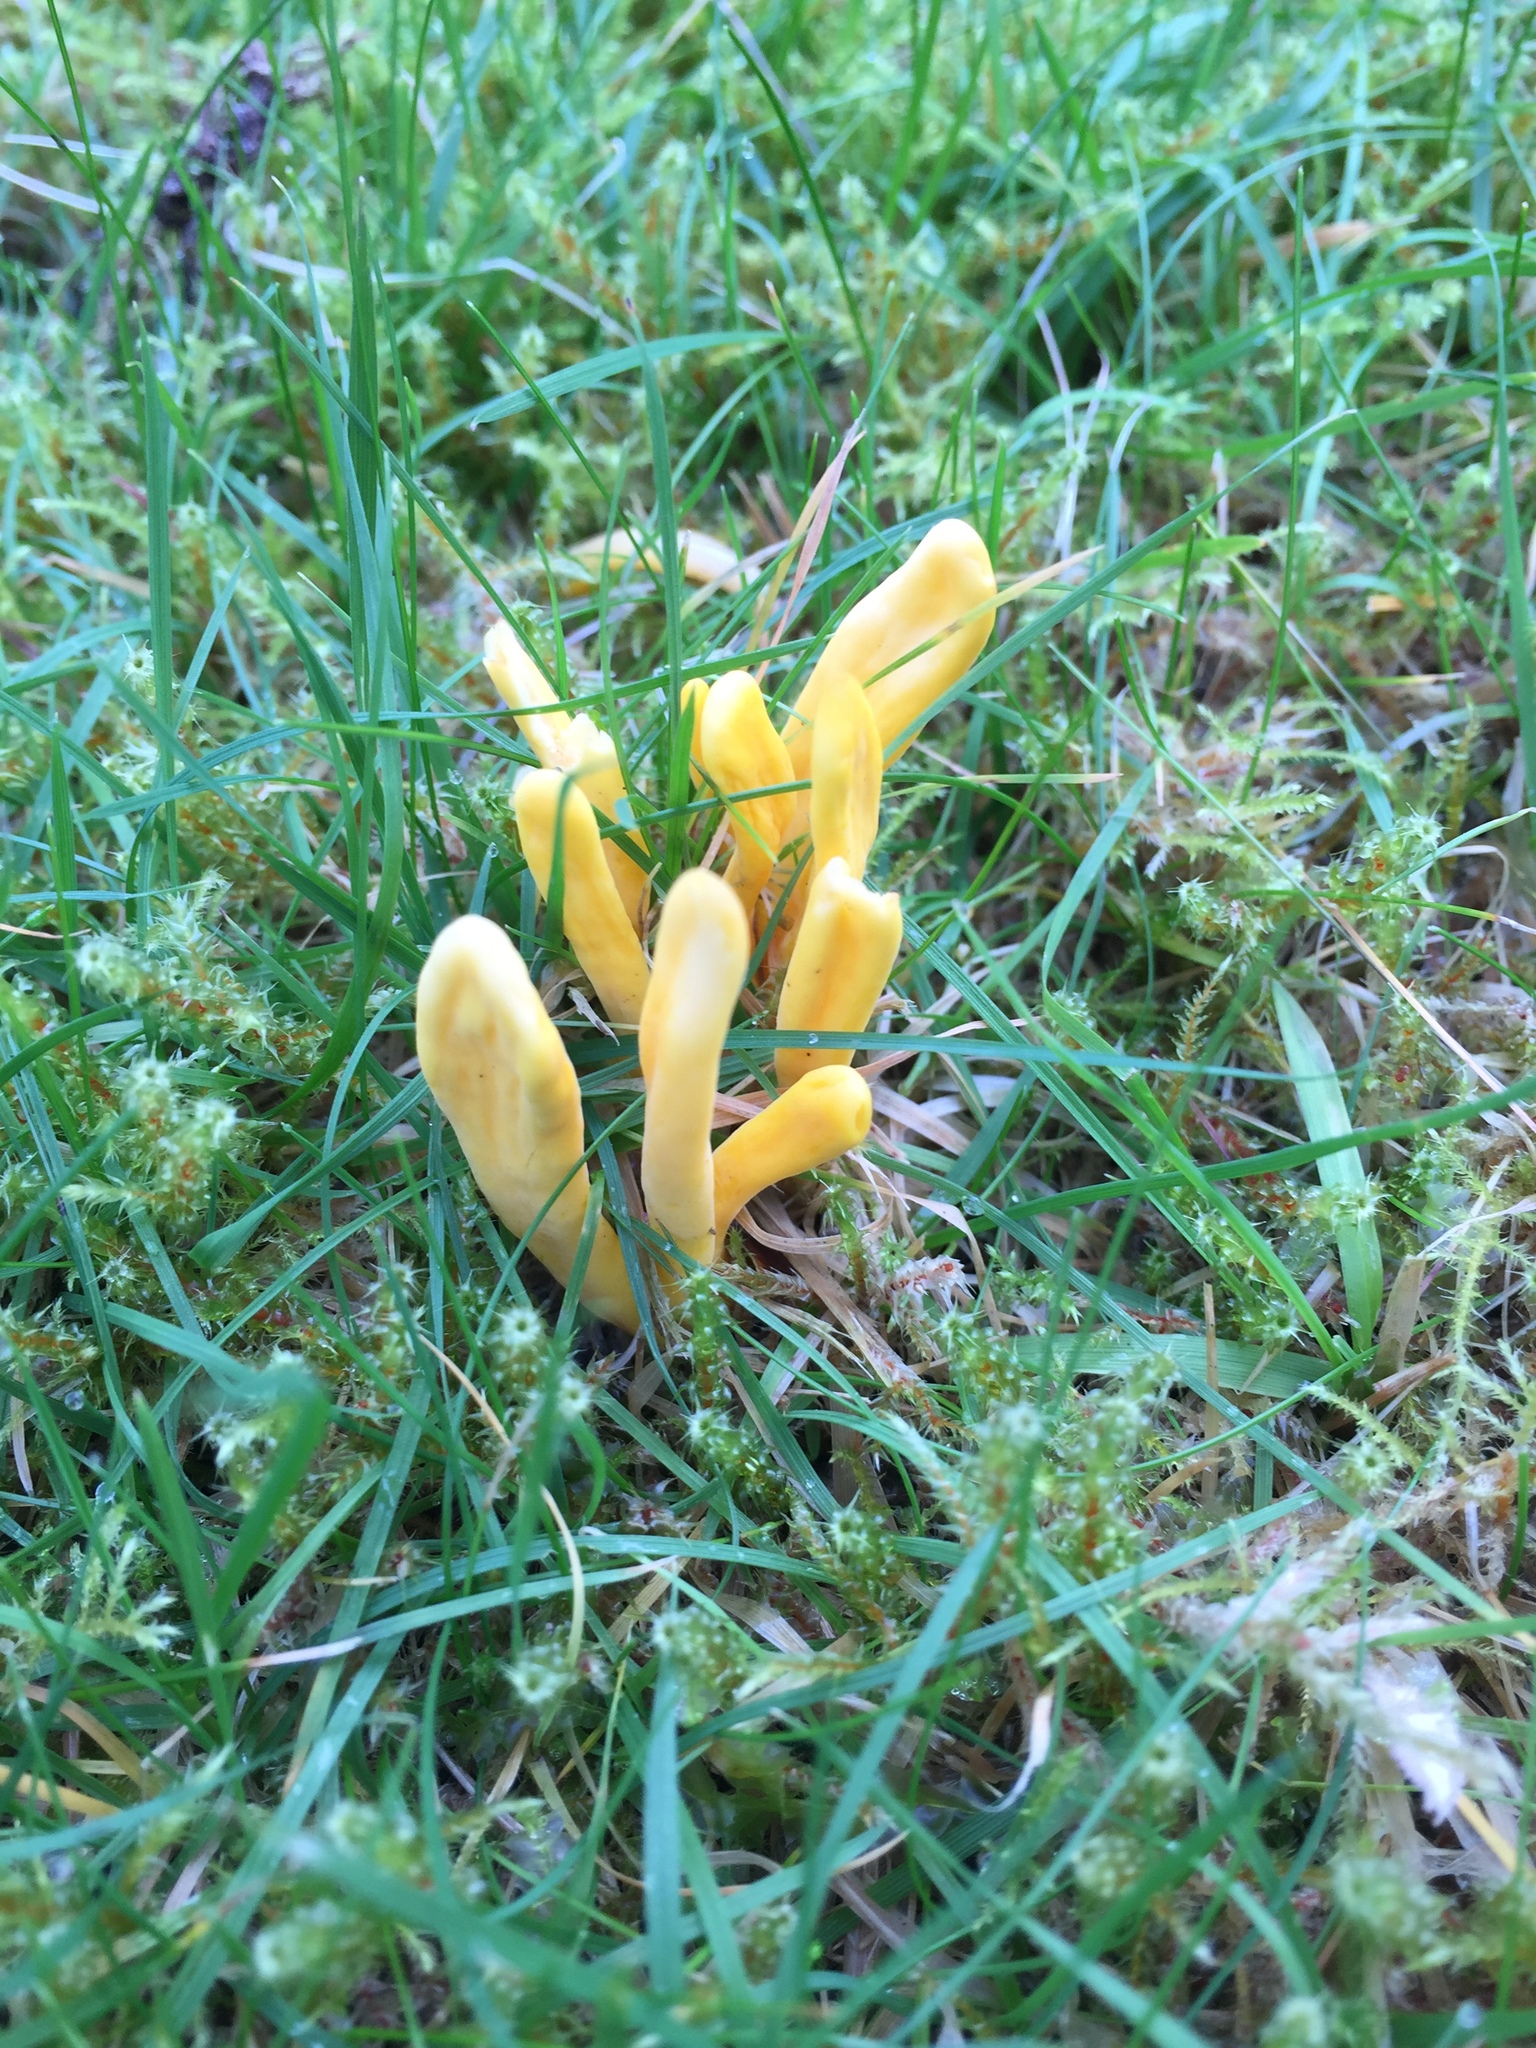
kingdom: Fungi
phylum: Basidiomycota
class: Agaricomycetes
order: Agaricales
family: Clavariaceae
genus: Clavulinopsis
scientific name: Clavulinopsis helvola
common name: Yellow club
